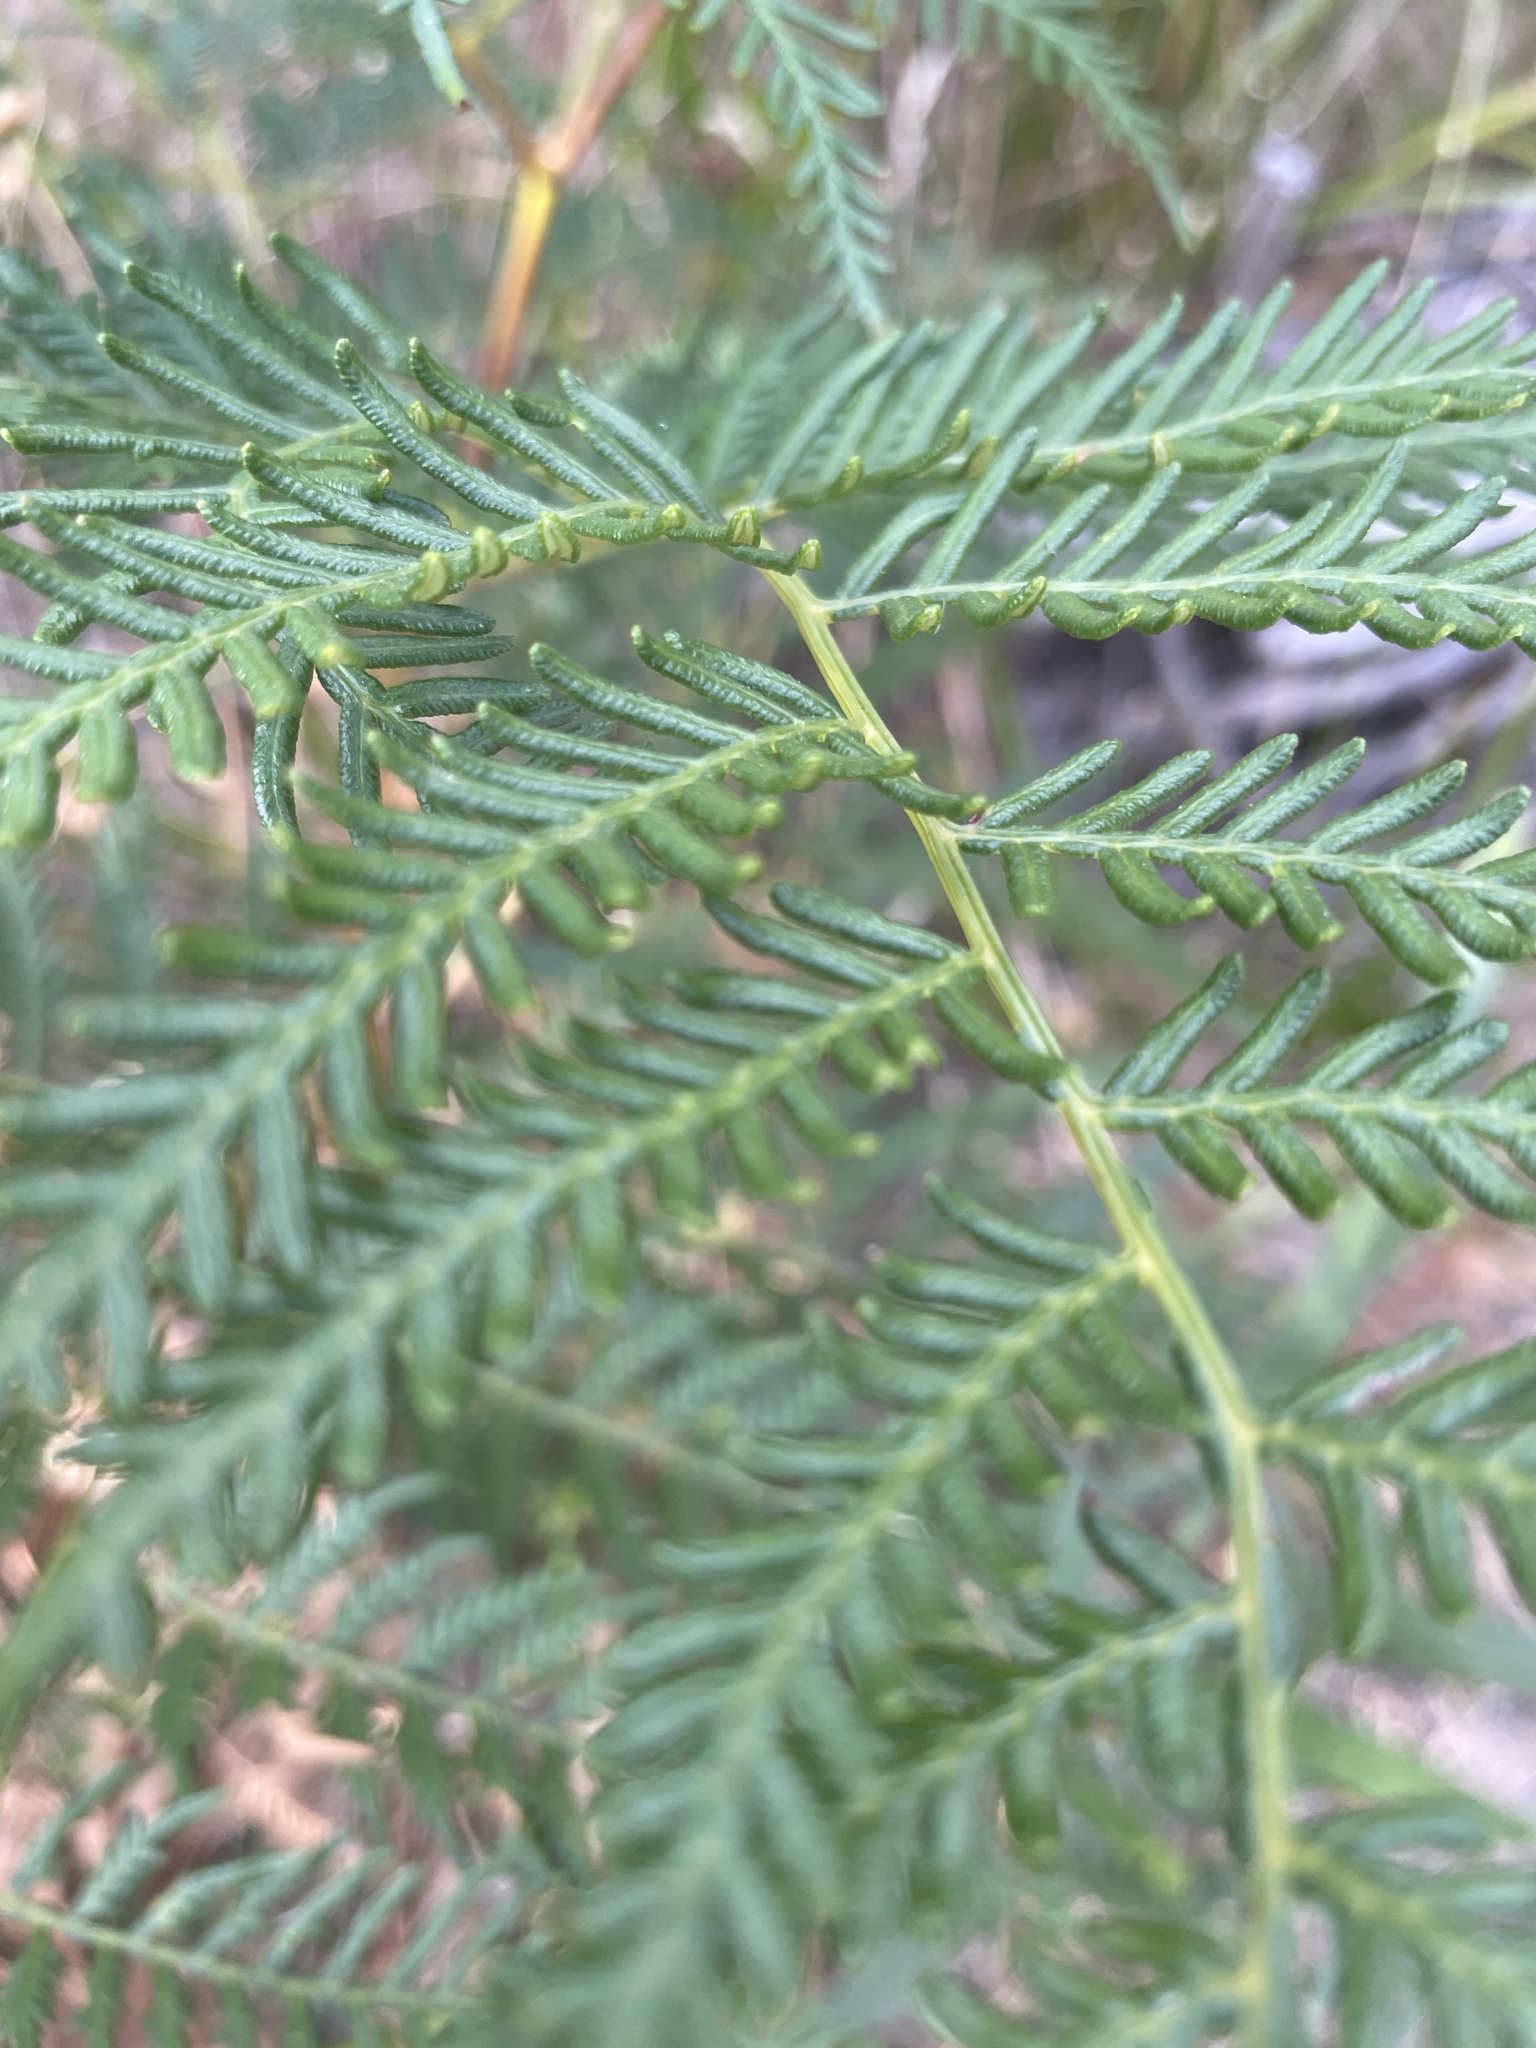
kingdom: Plantae
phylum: Tracheophyta
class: Polypodiopsida
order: Polypodiales
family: Dennstaedtiaceae
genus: Pteridium
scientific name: Pteridium esculentum
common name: Bracken fern
